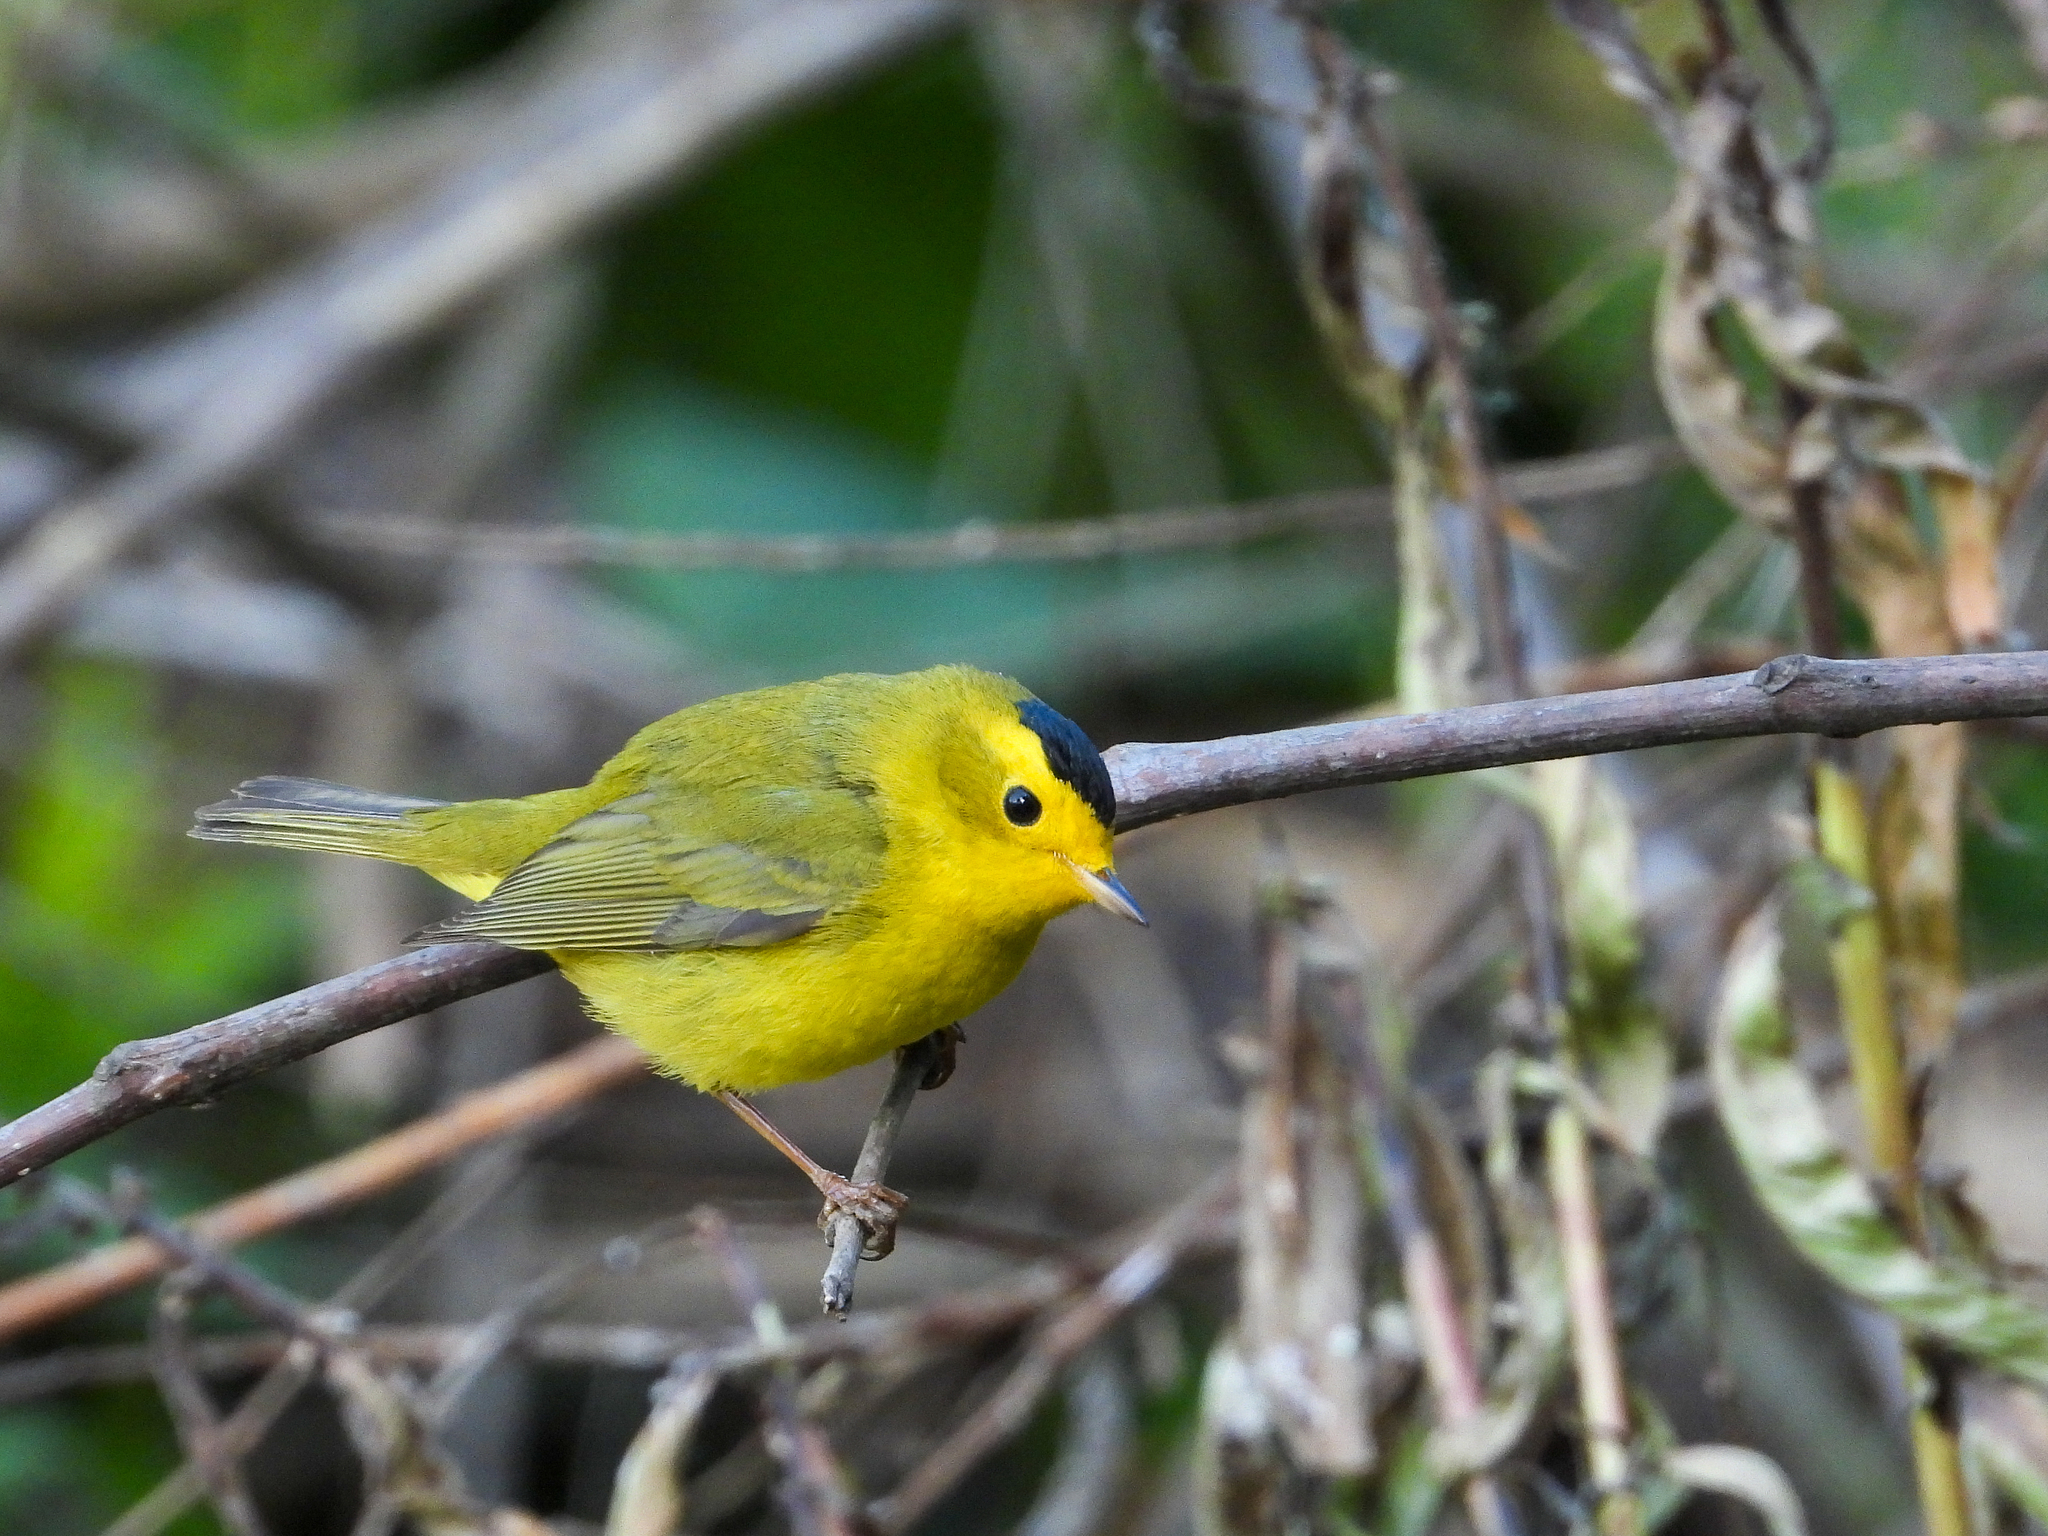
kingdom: Animalia
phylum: Chordata
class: Aves
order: Passeriformes
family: Parulidae
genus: Cardellina
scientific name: Cardellina pusilla
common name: Wilson's warbler
